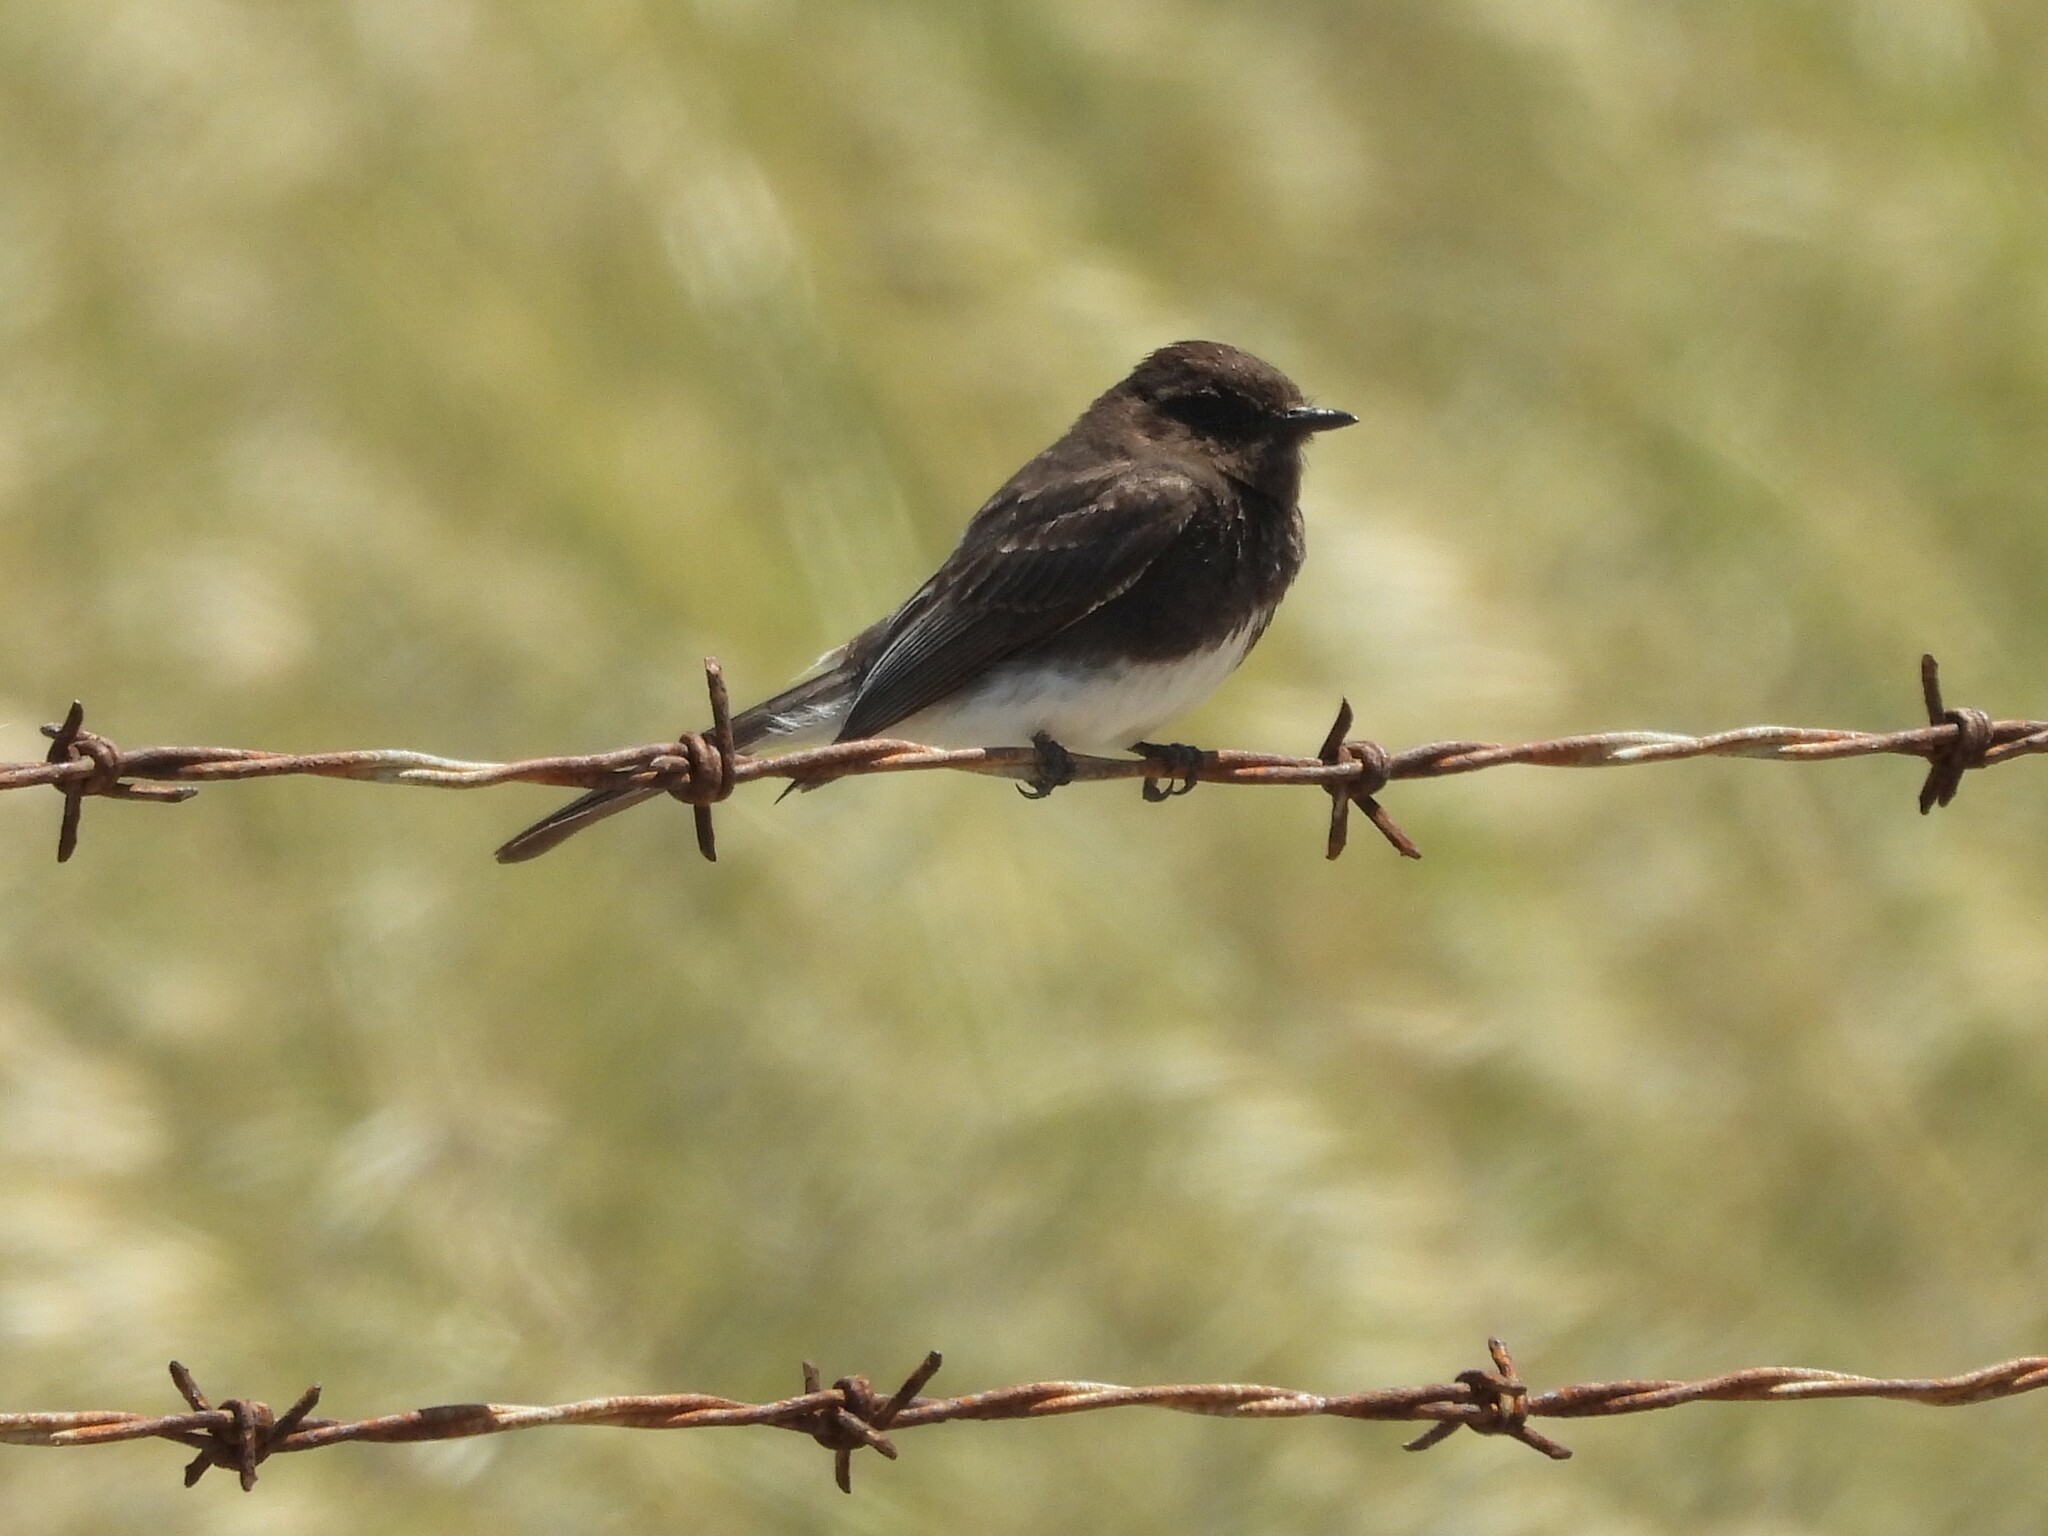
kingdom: Animalia
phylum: Chordata
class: Aves
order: Passeriformes
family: Tyrannidae
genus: Sayornis
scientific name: Sayornis nigricans
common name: Black phoebe
